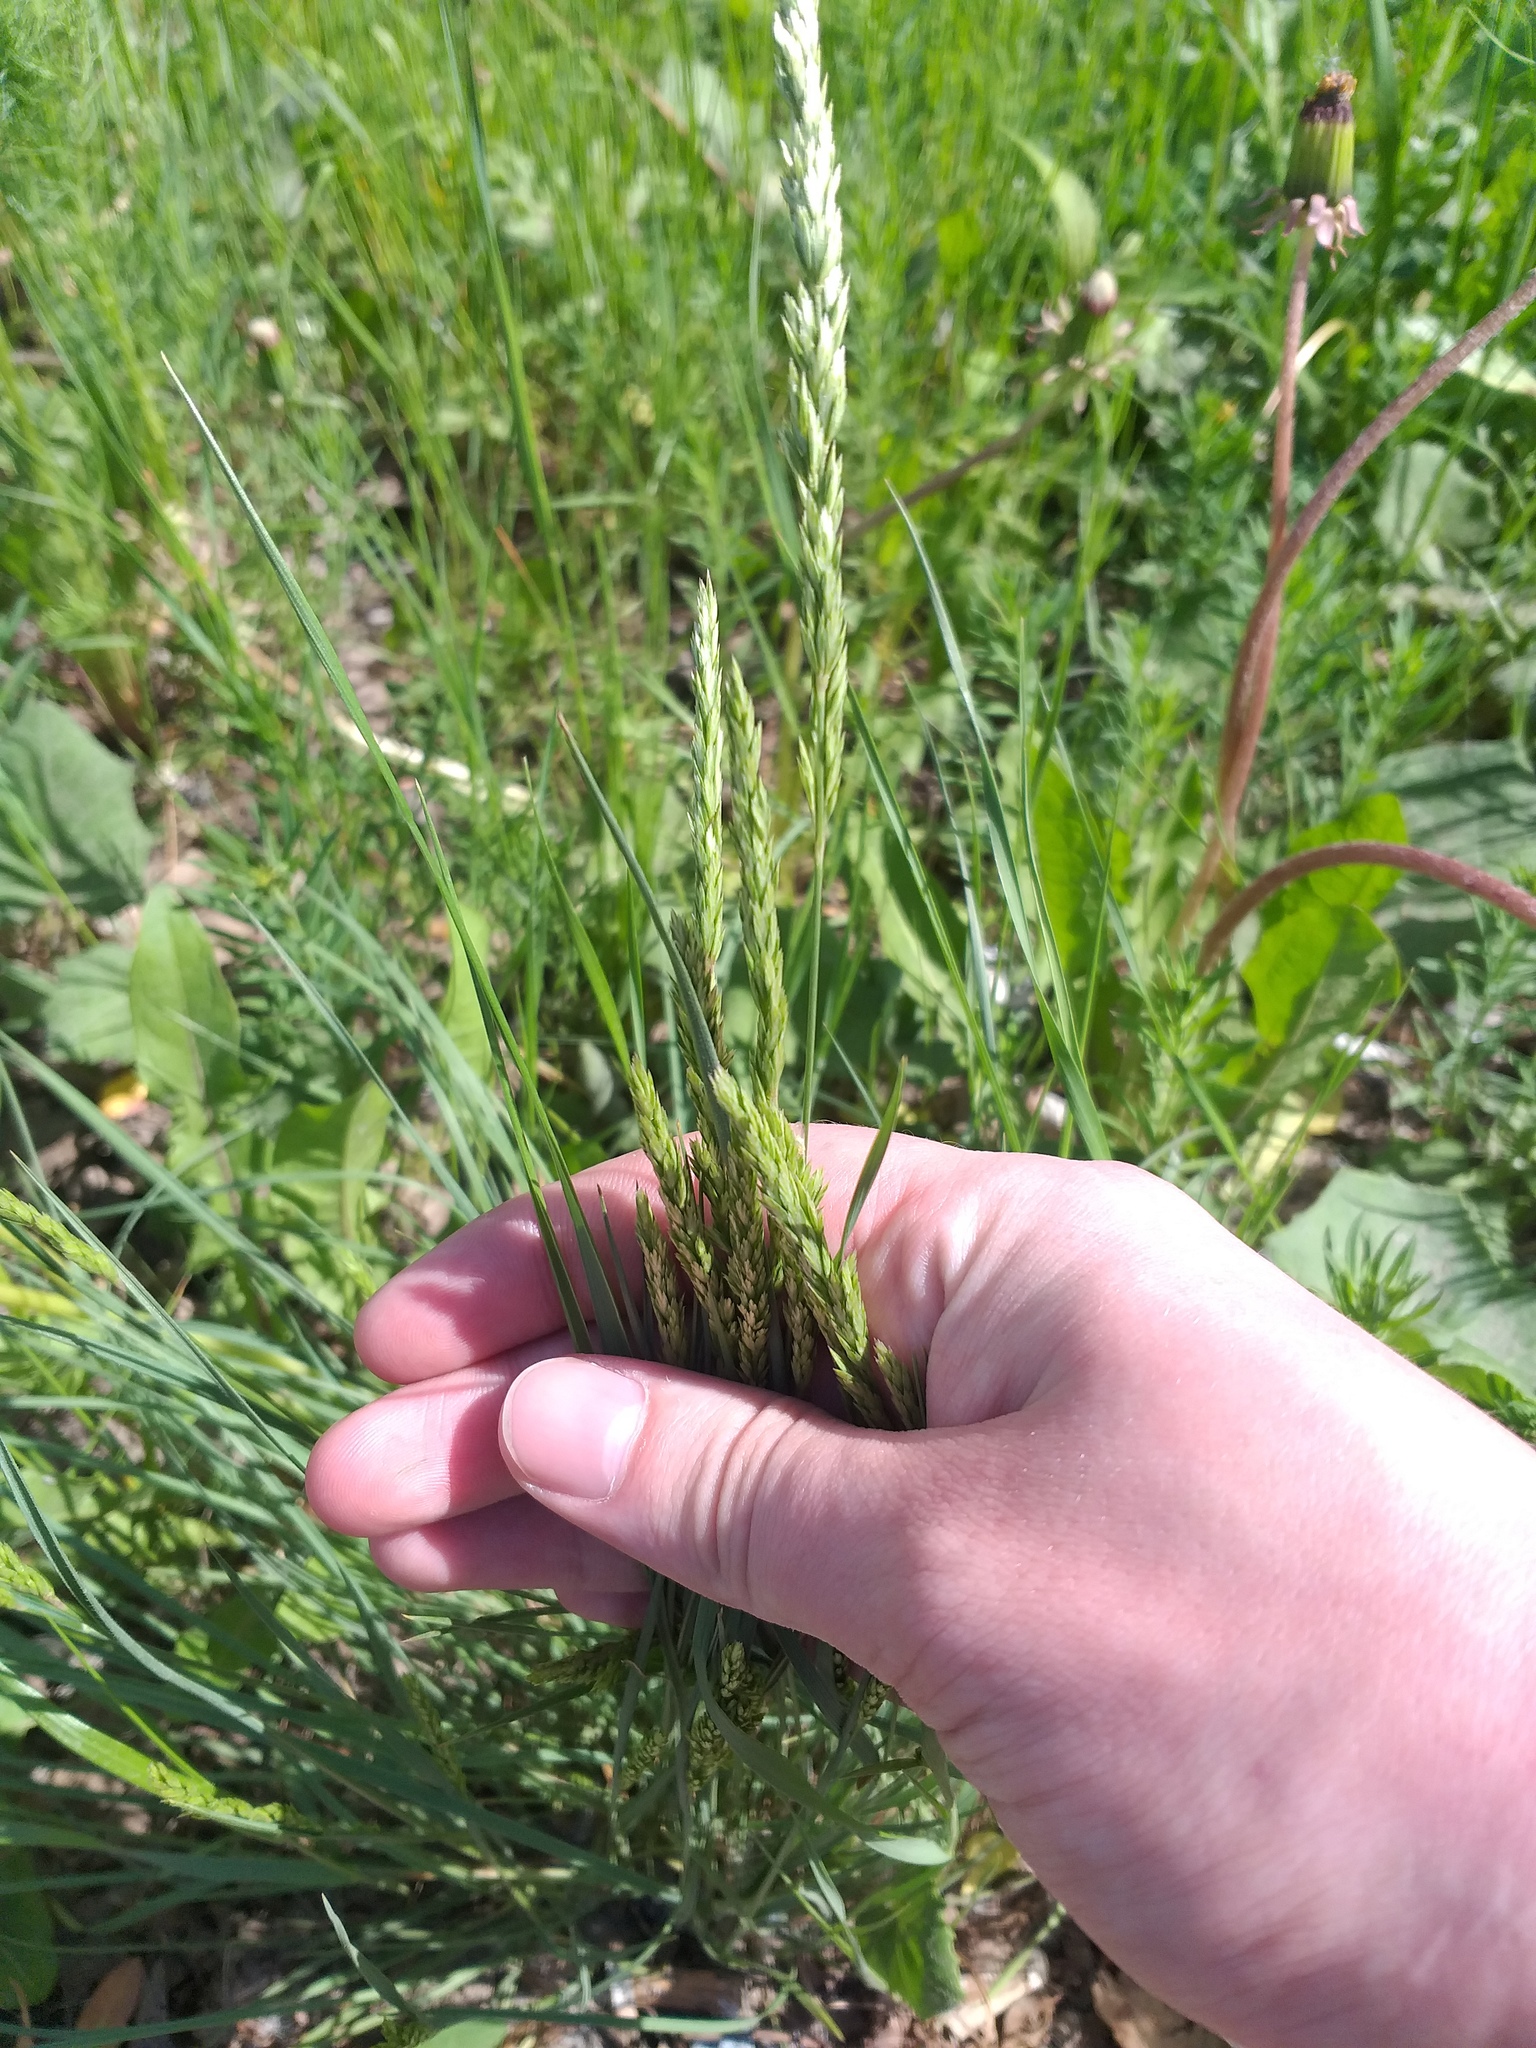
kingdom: Plantae
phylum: Tracheophyta
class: Liliopsida
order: Poales
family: Poaceae
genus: Koeleria
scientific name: Koeleria macrantha
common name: Crested hair-grass
